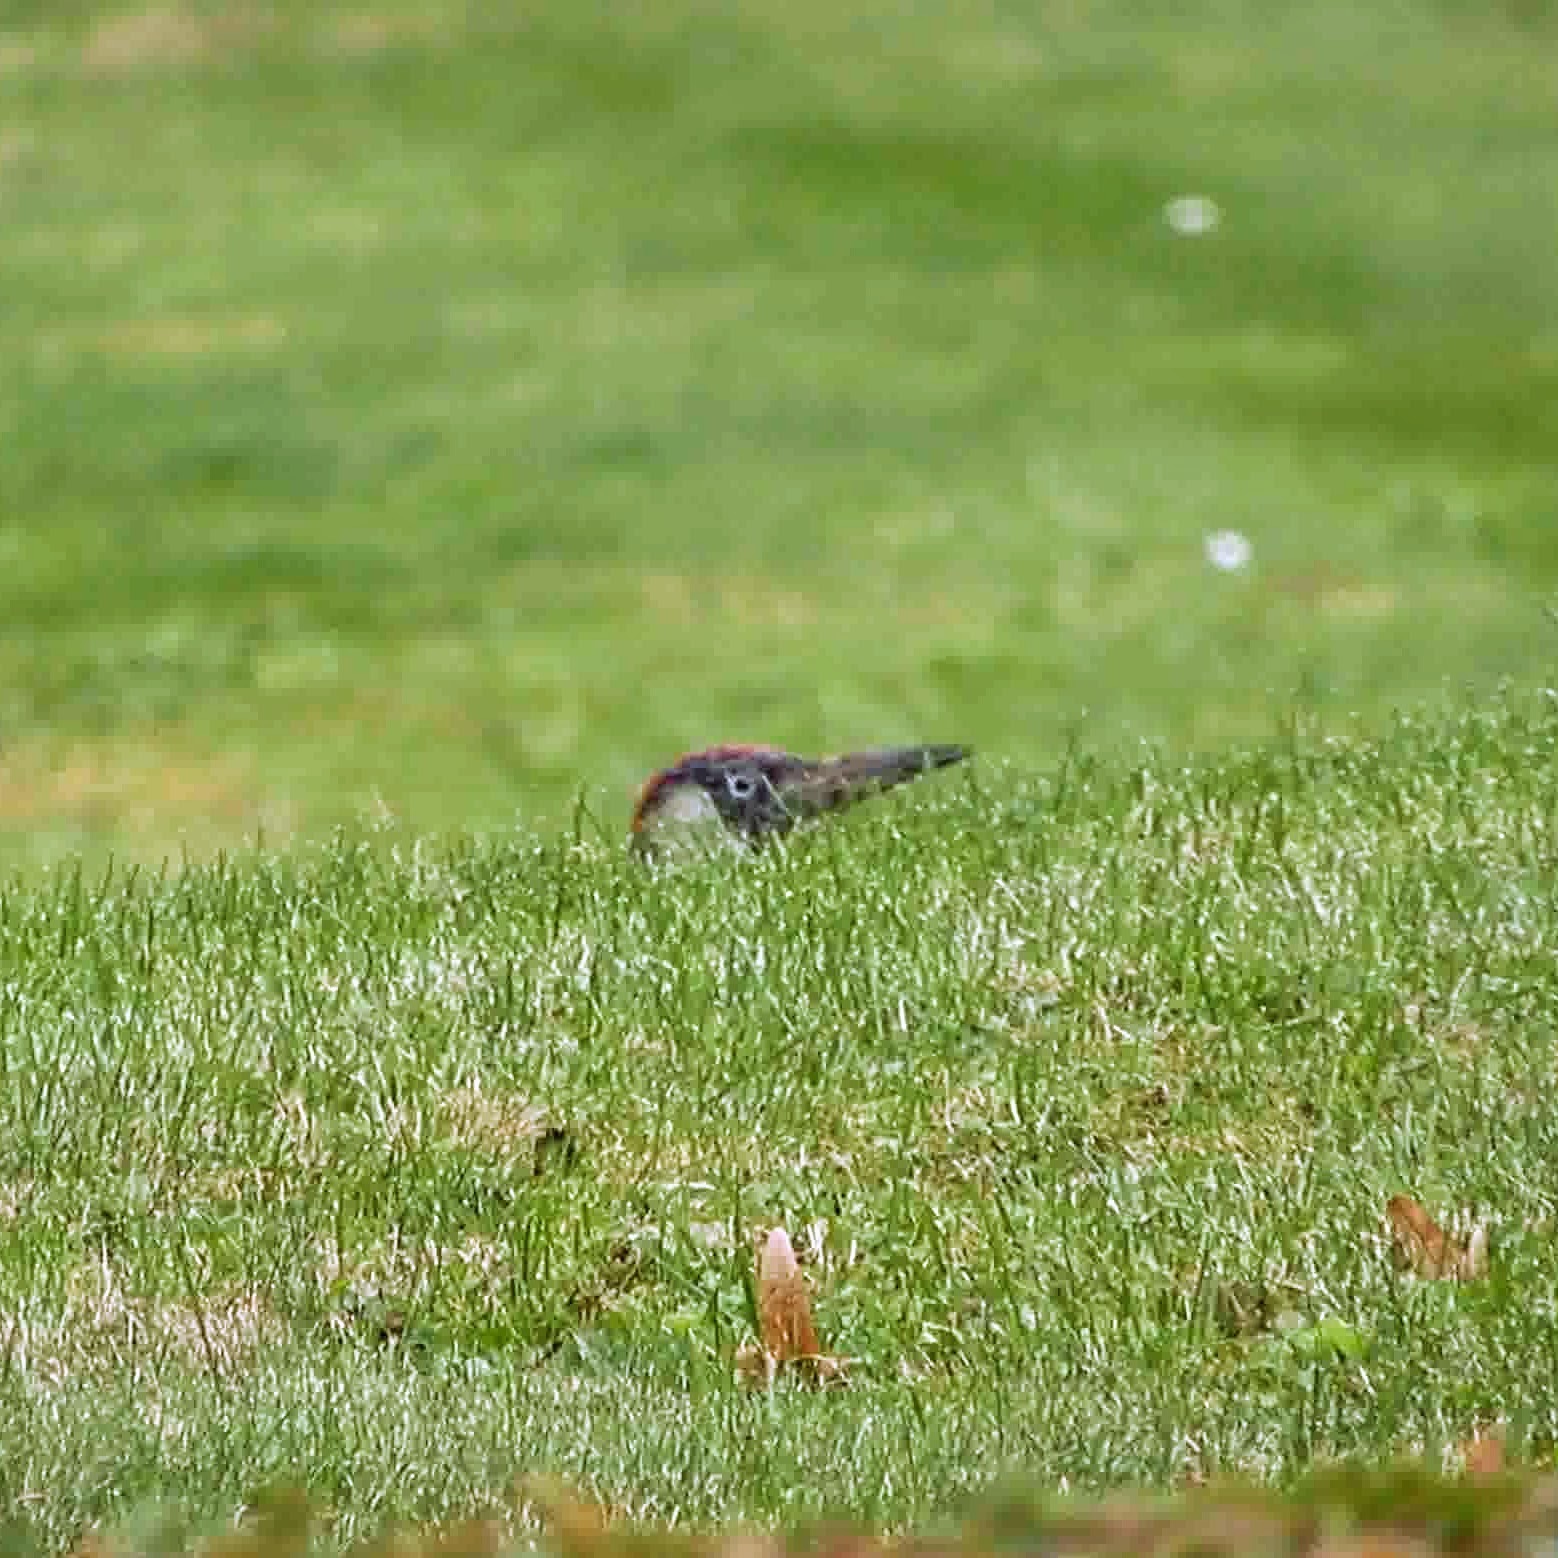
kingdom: Animalia
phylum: Chordata
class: Aves
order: Piciformes
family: Picidae
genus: Picus
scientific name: Picus viridis
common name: European green woodpecker
